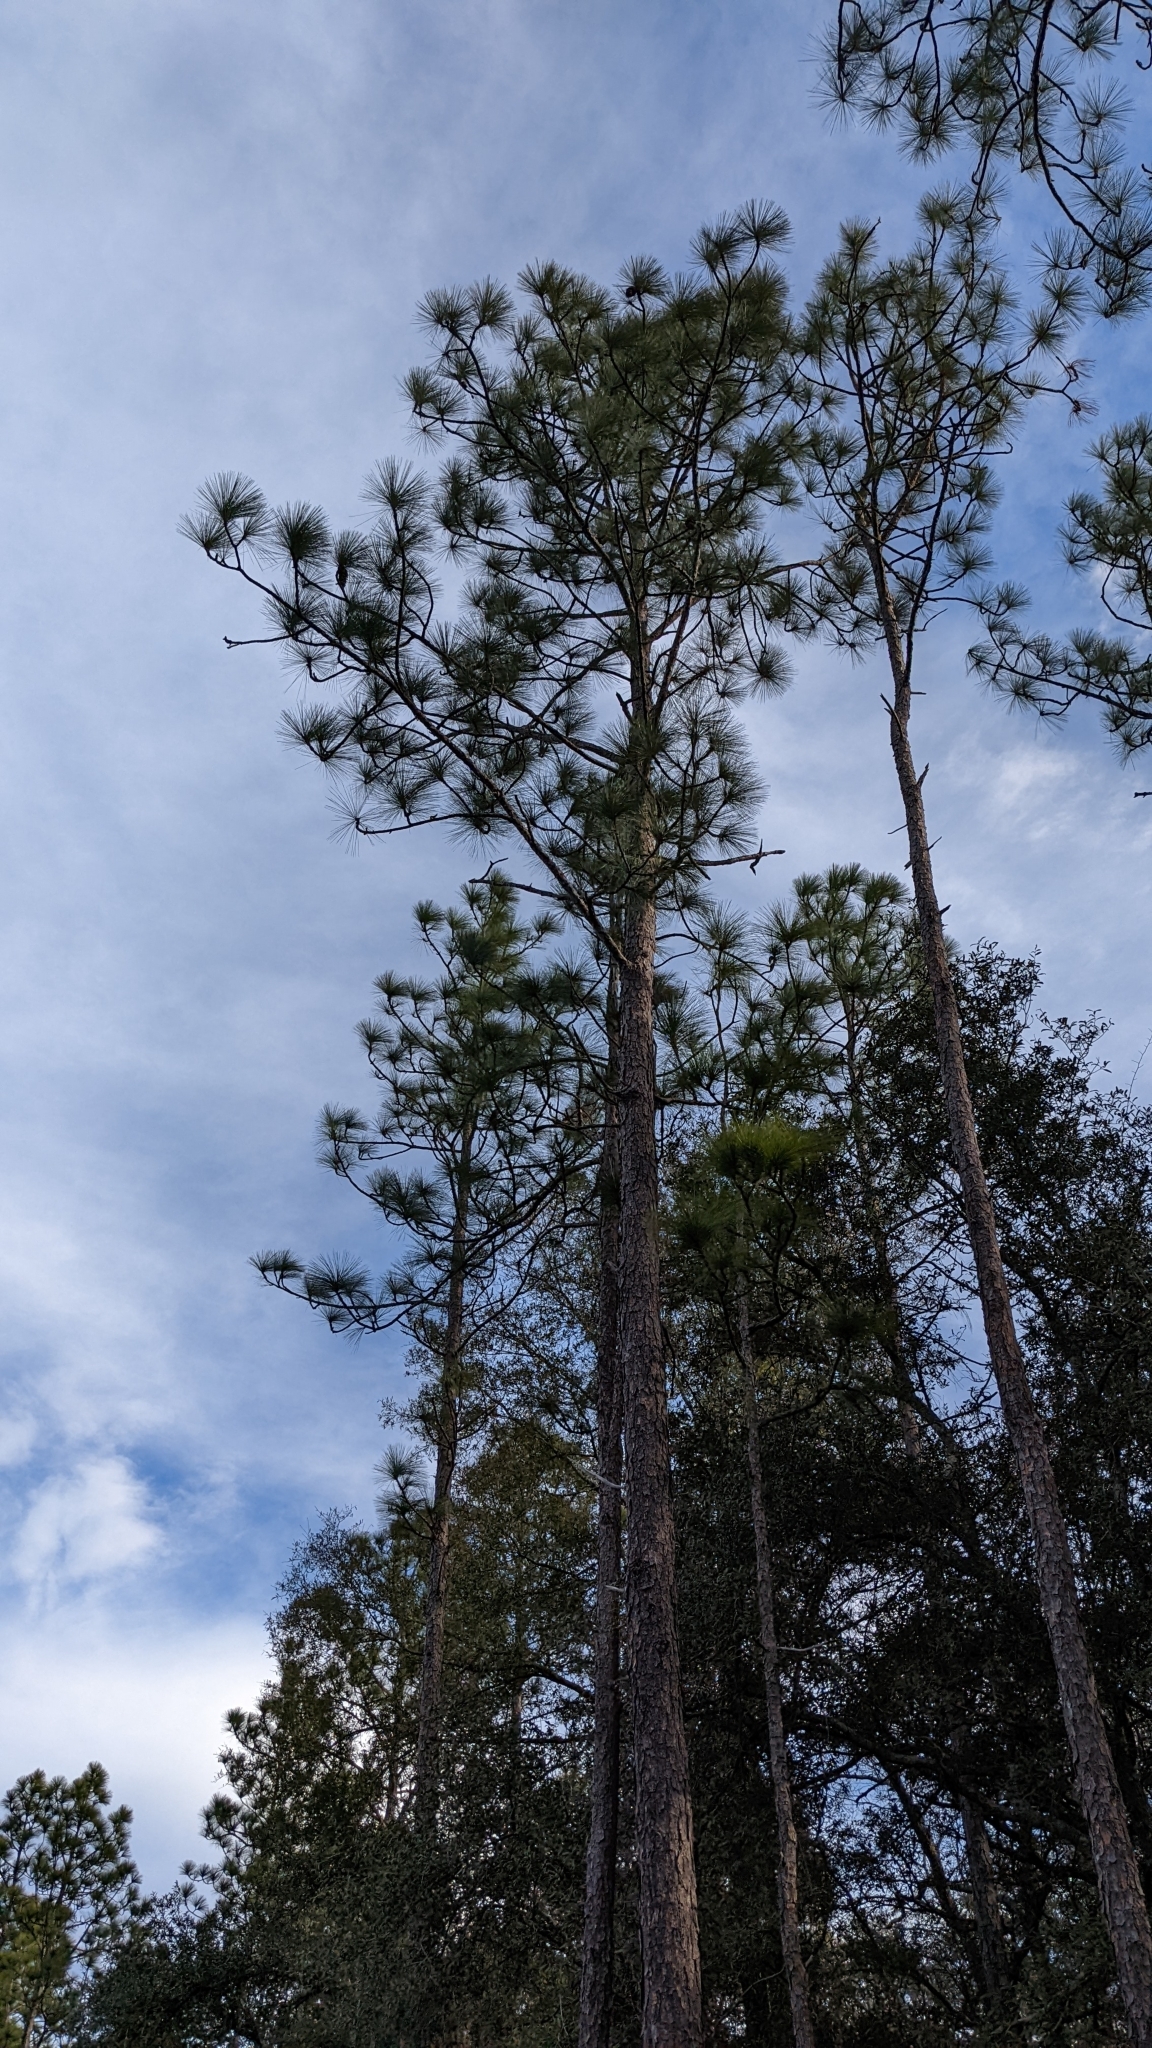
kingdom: Plantae
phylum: Tracheophyta
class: Pinopsida
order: Pinales
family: Pinaceae
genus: Pinus
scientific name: Pinus palustris
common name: Longleaf pine
